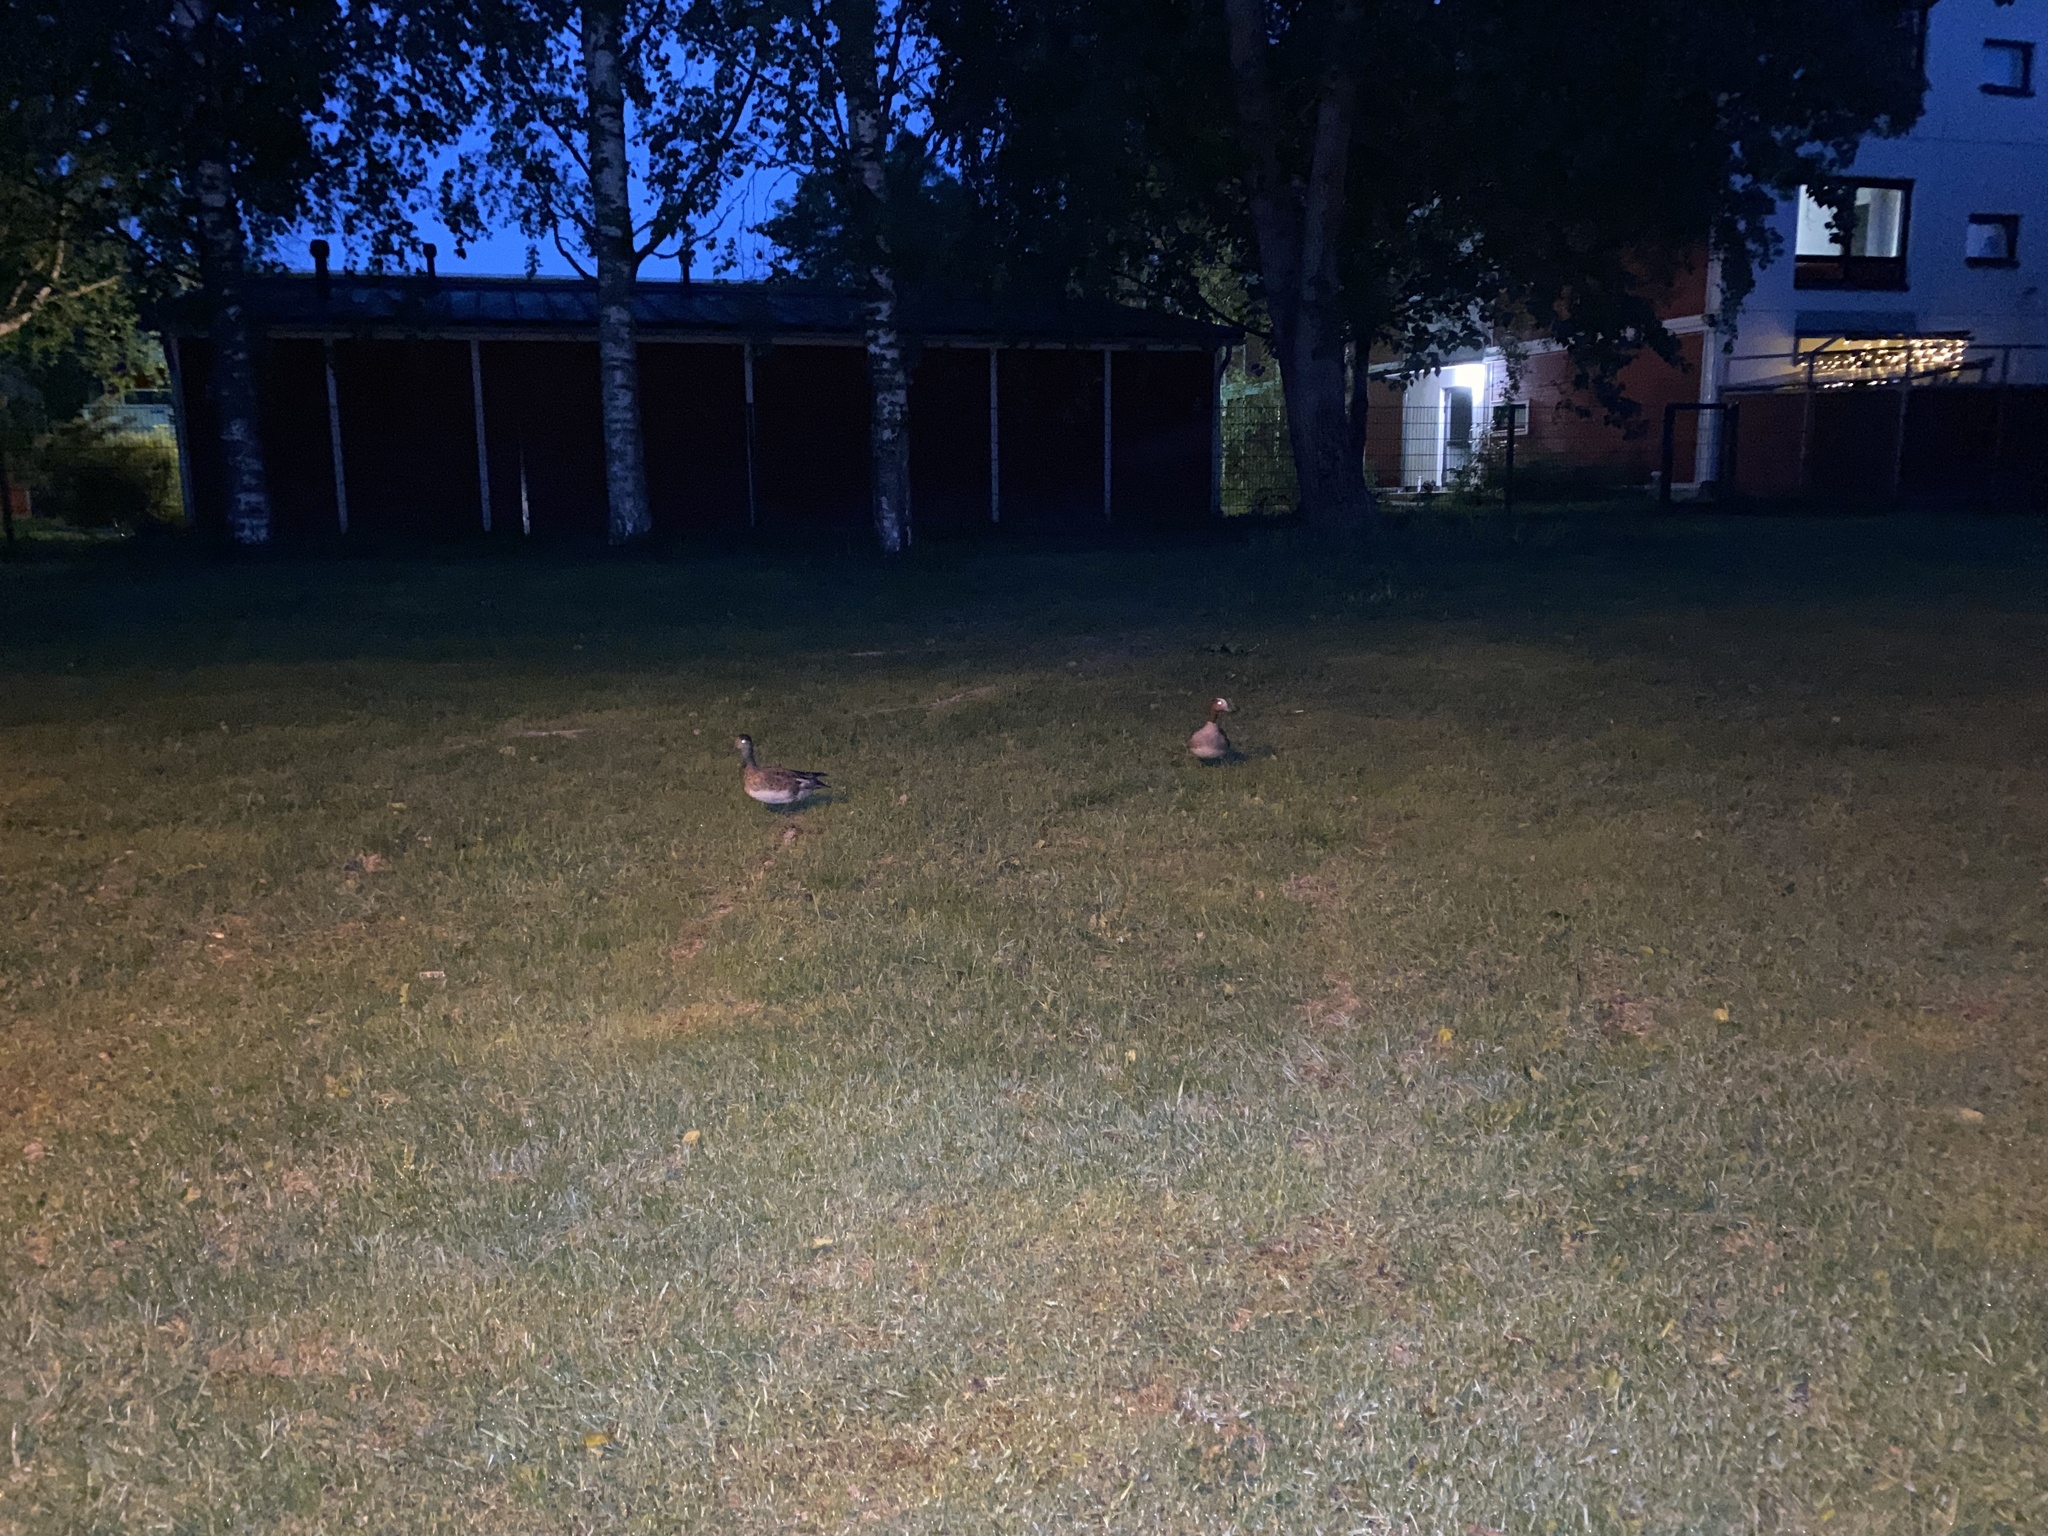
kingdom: Animalia
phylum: Chordata
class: Aves
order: Anseriformes
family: Anatidae
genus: Mareca
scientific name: Mareca penelope
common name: Eurasian wigeon
